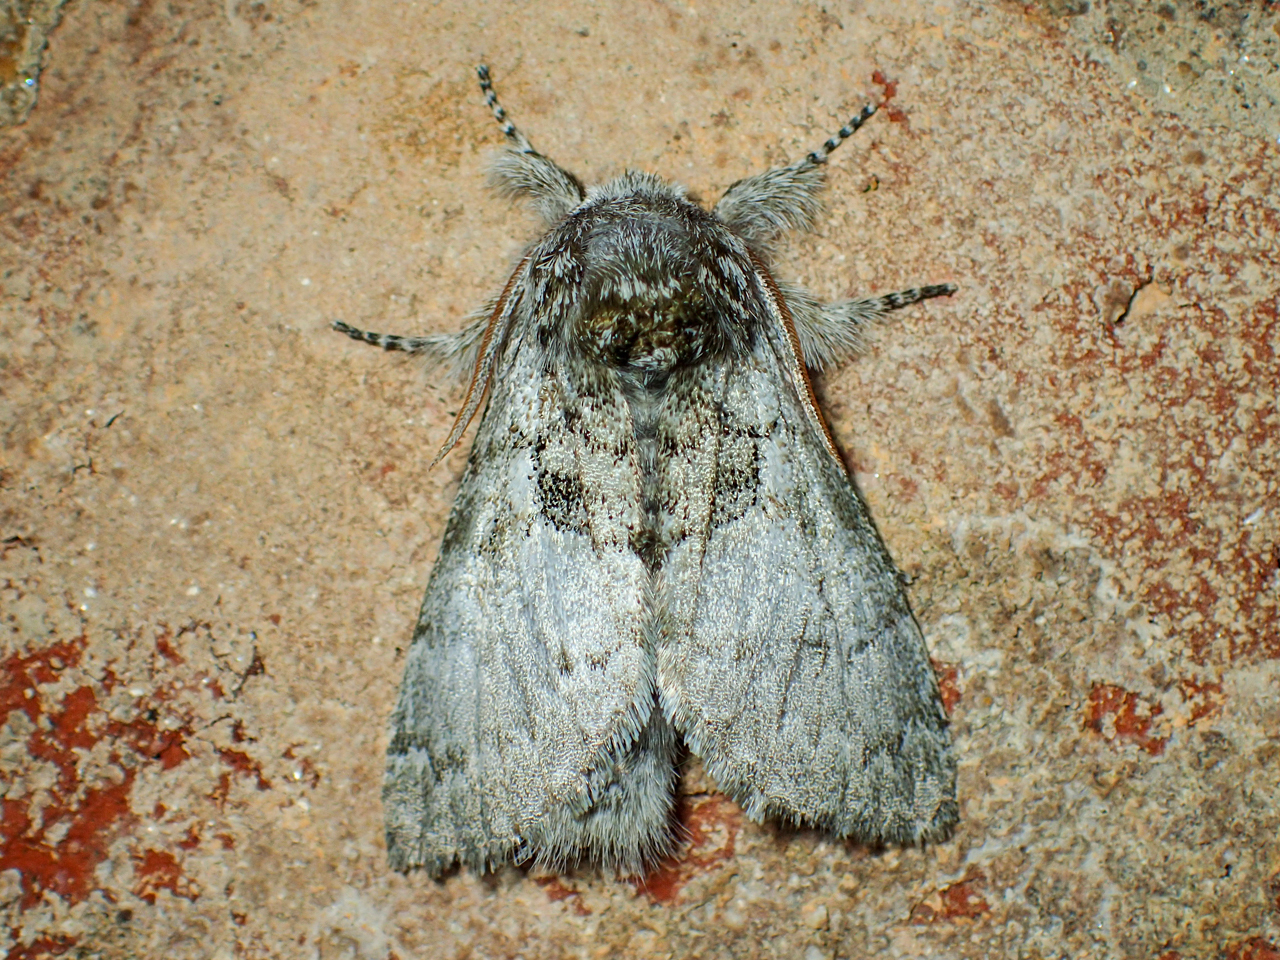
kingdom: Animalia
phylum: Arthropoda
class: Insecta
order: Lepidoptera
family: Noctuidae
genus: Colocasia
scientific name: Colocasia flavicornis
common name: Saddled yellowhorn
